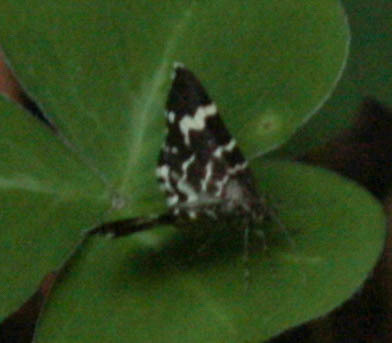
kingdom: Animalia
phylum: Arthropoda
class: Insecta
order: Lepidoptera
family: Geometridae
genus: Trichodezia
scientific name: Trichodezia californiata
